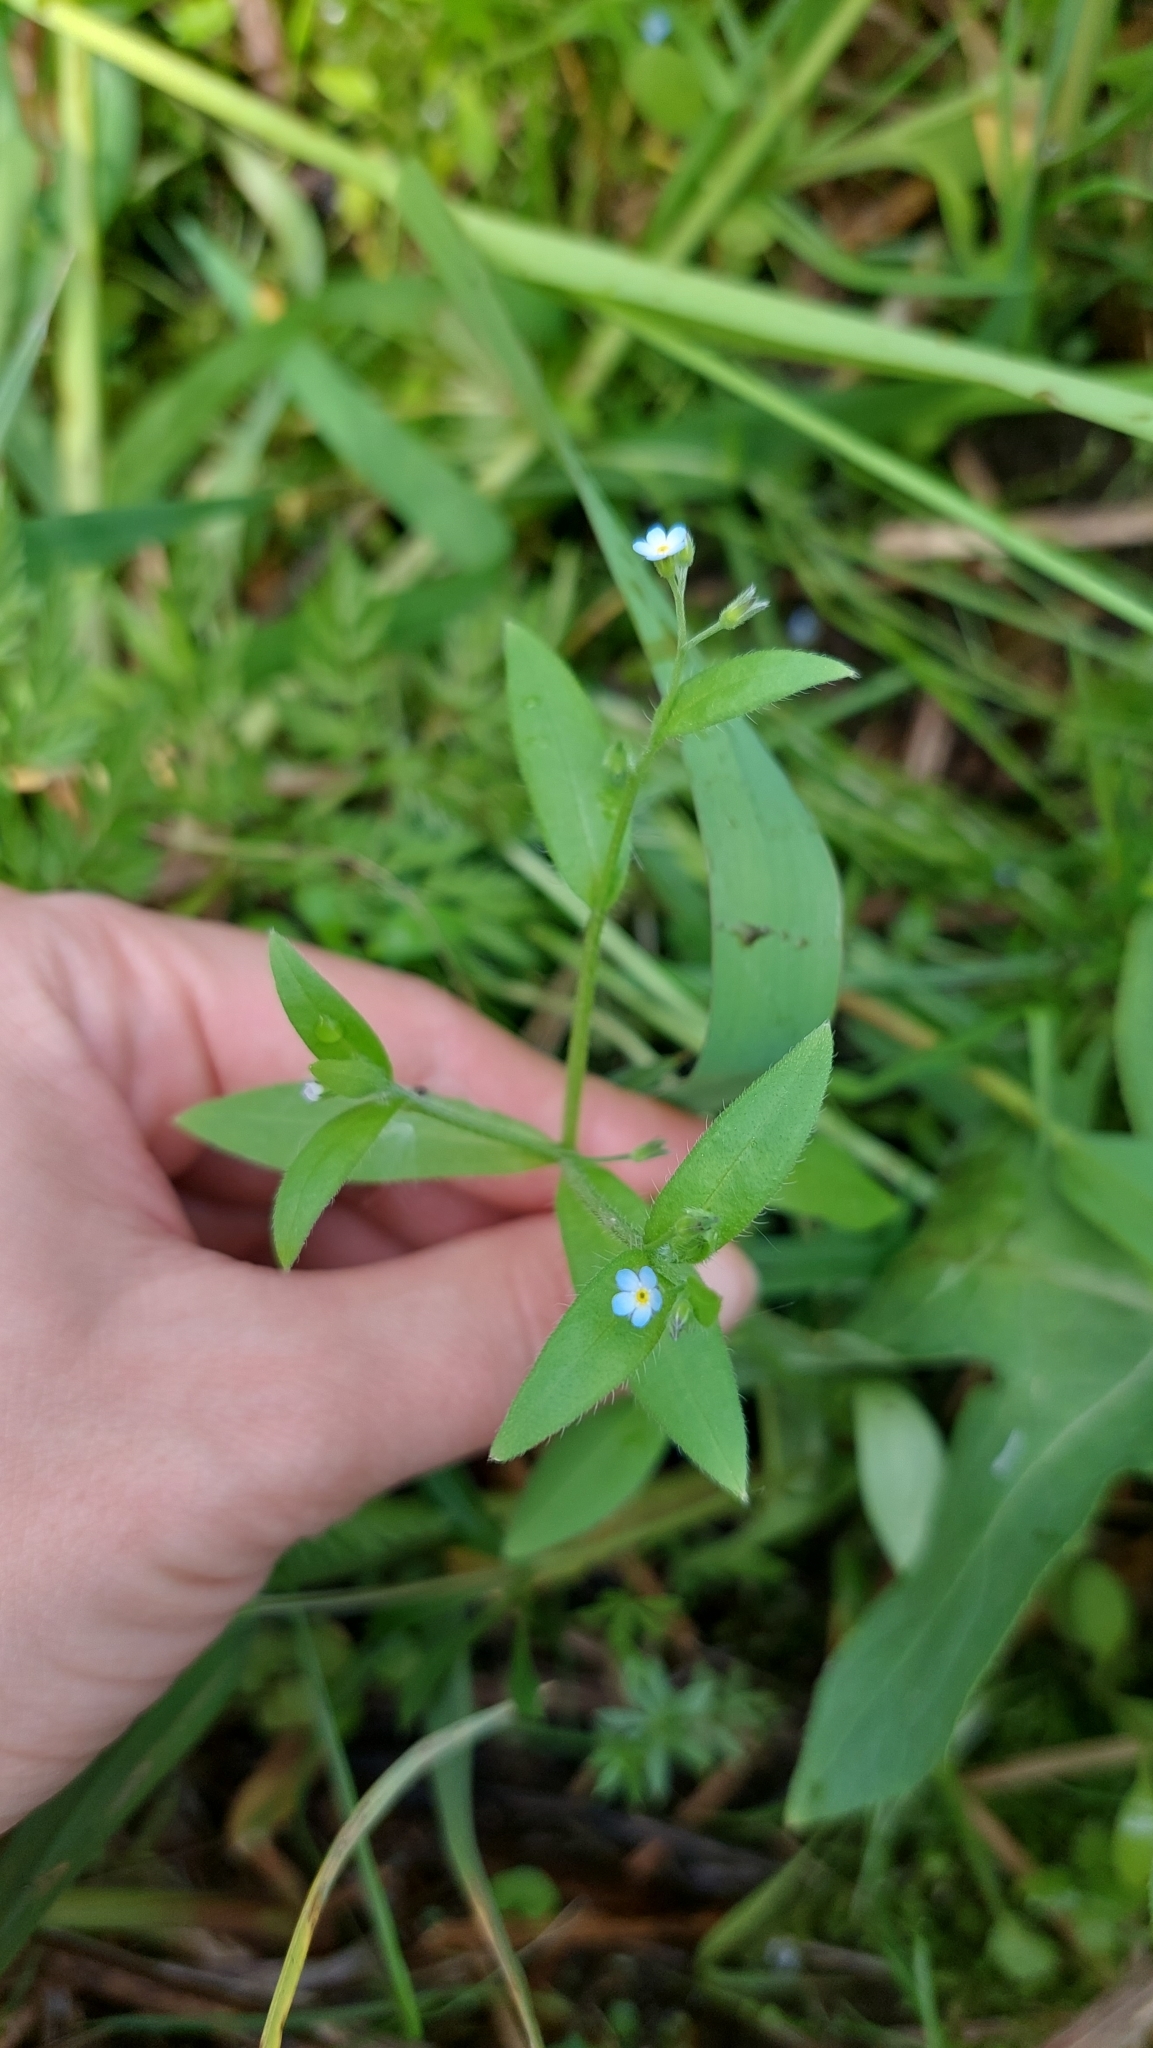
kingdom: Plantae
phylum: Tracheophyta
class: Magnoliopsida
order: Boraginales
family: Boraginaceae
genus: Myosotis
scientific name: Myosotis sparsiflora
